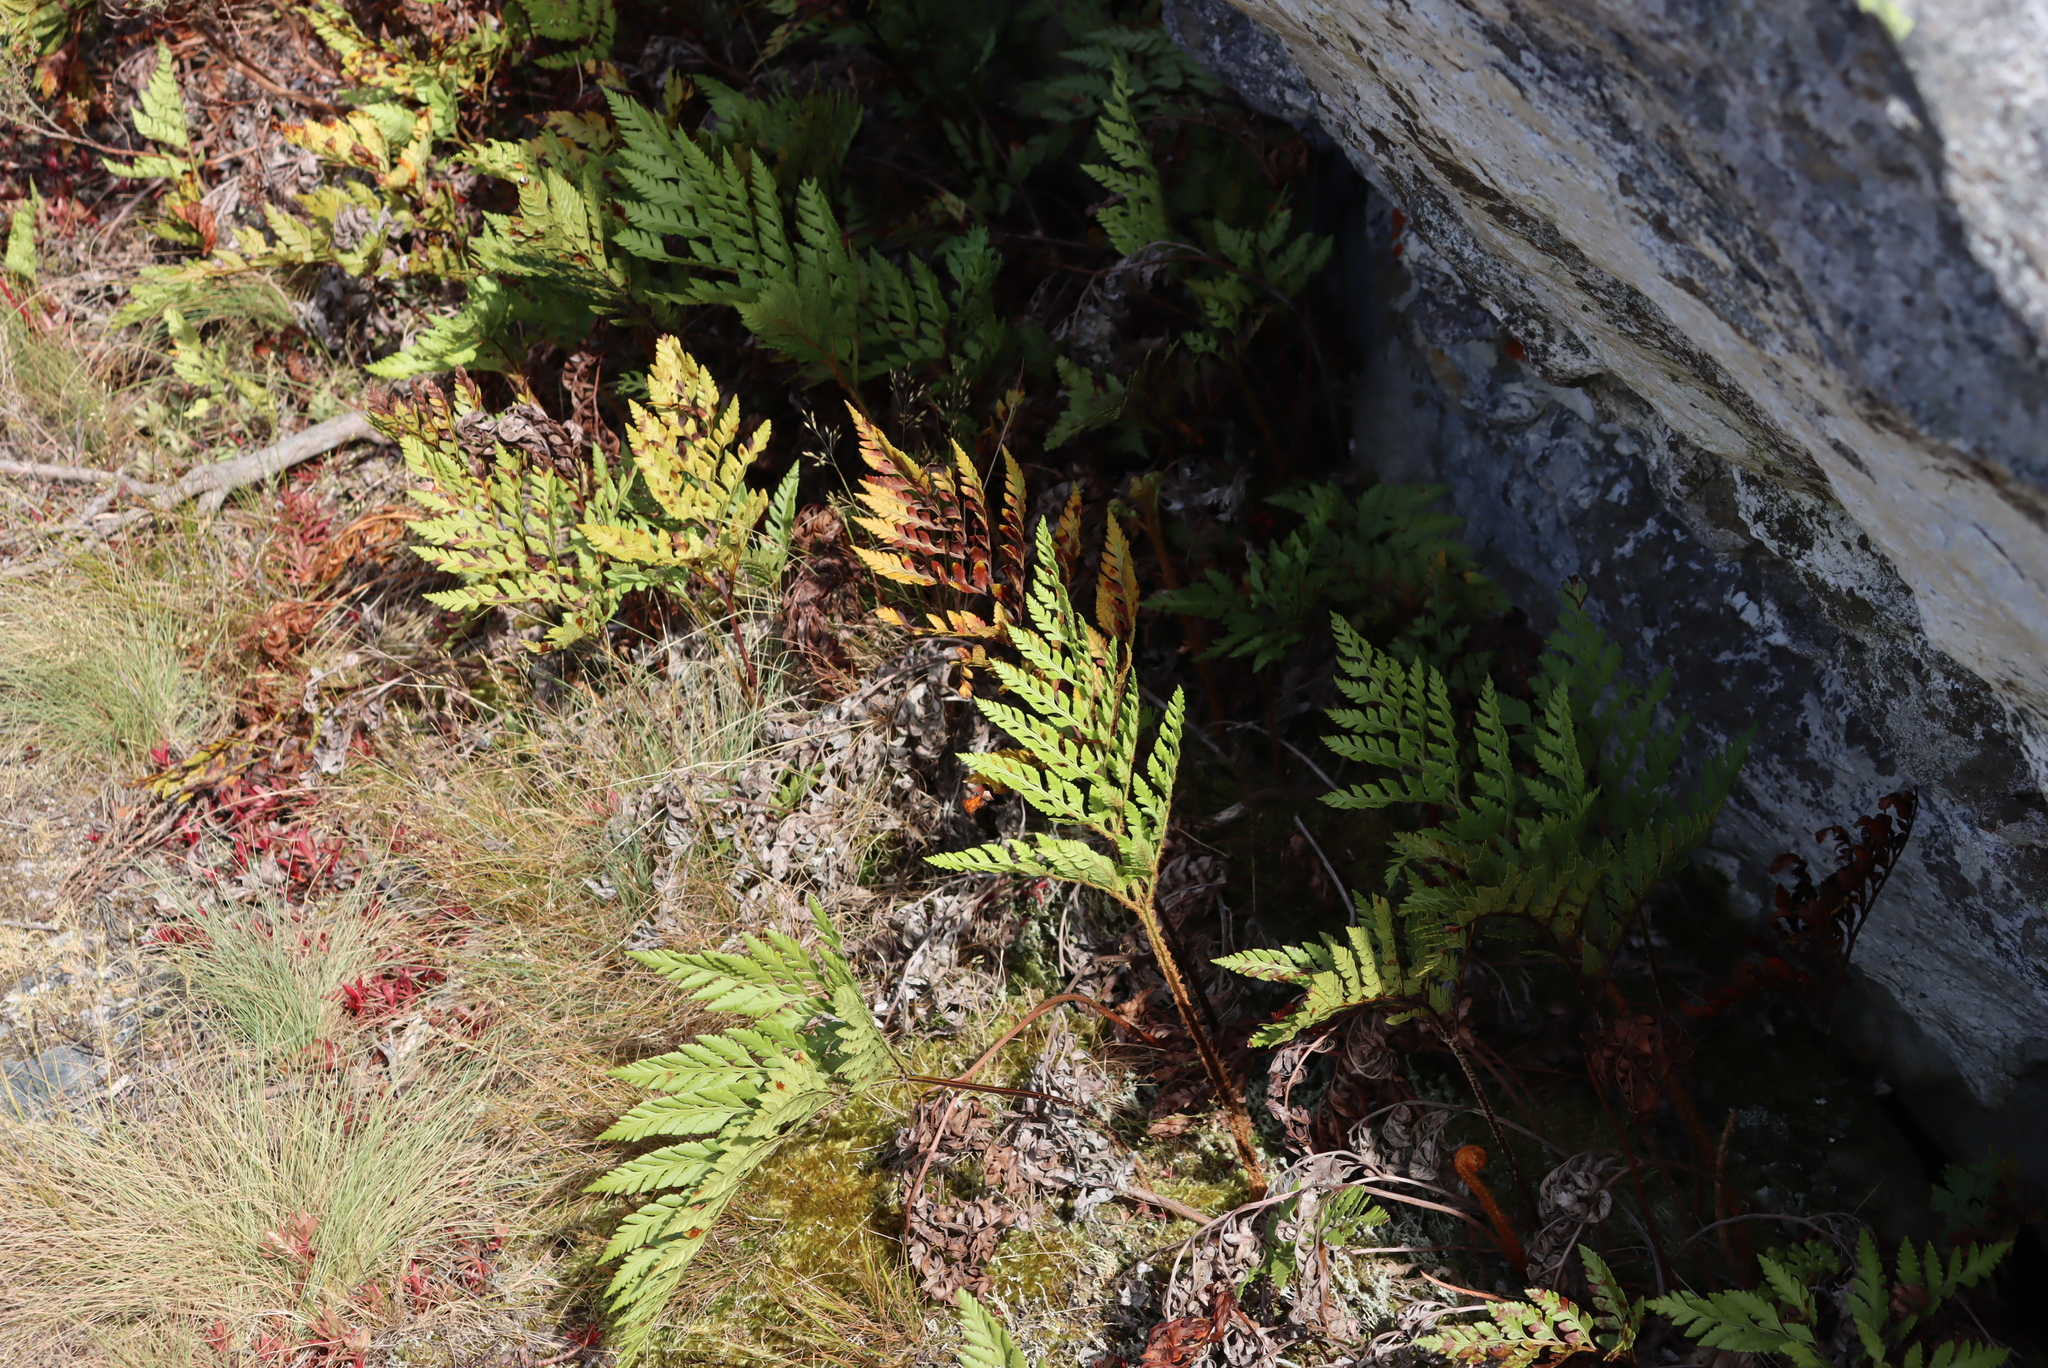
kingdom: Plantae
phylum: Tracheophyta
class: Polypodiopsida
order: Polypodiales
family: Dryopteridaceae
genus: Rumohra
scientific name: Rumohra adiantiformis
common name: Leather fern
